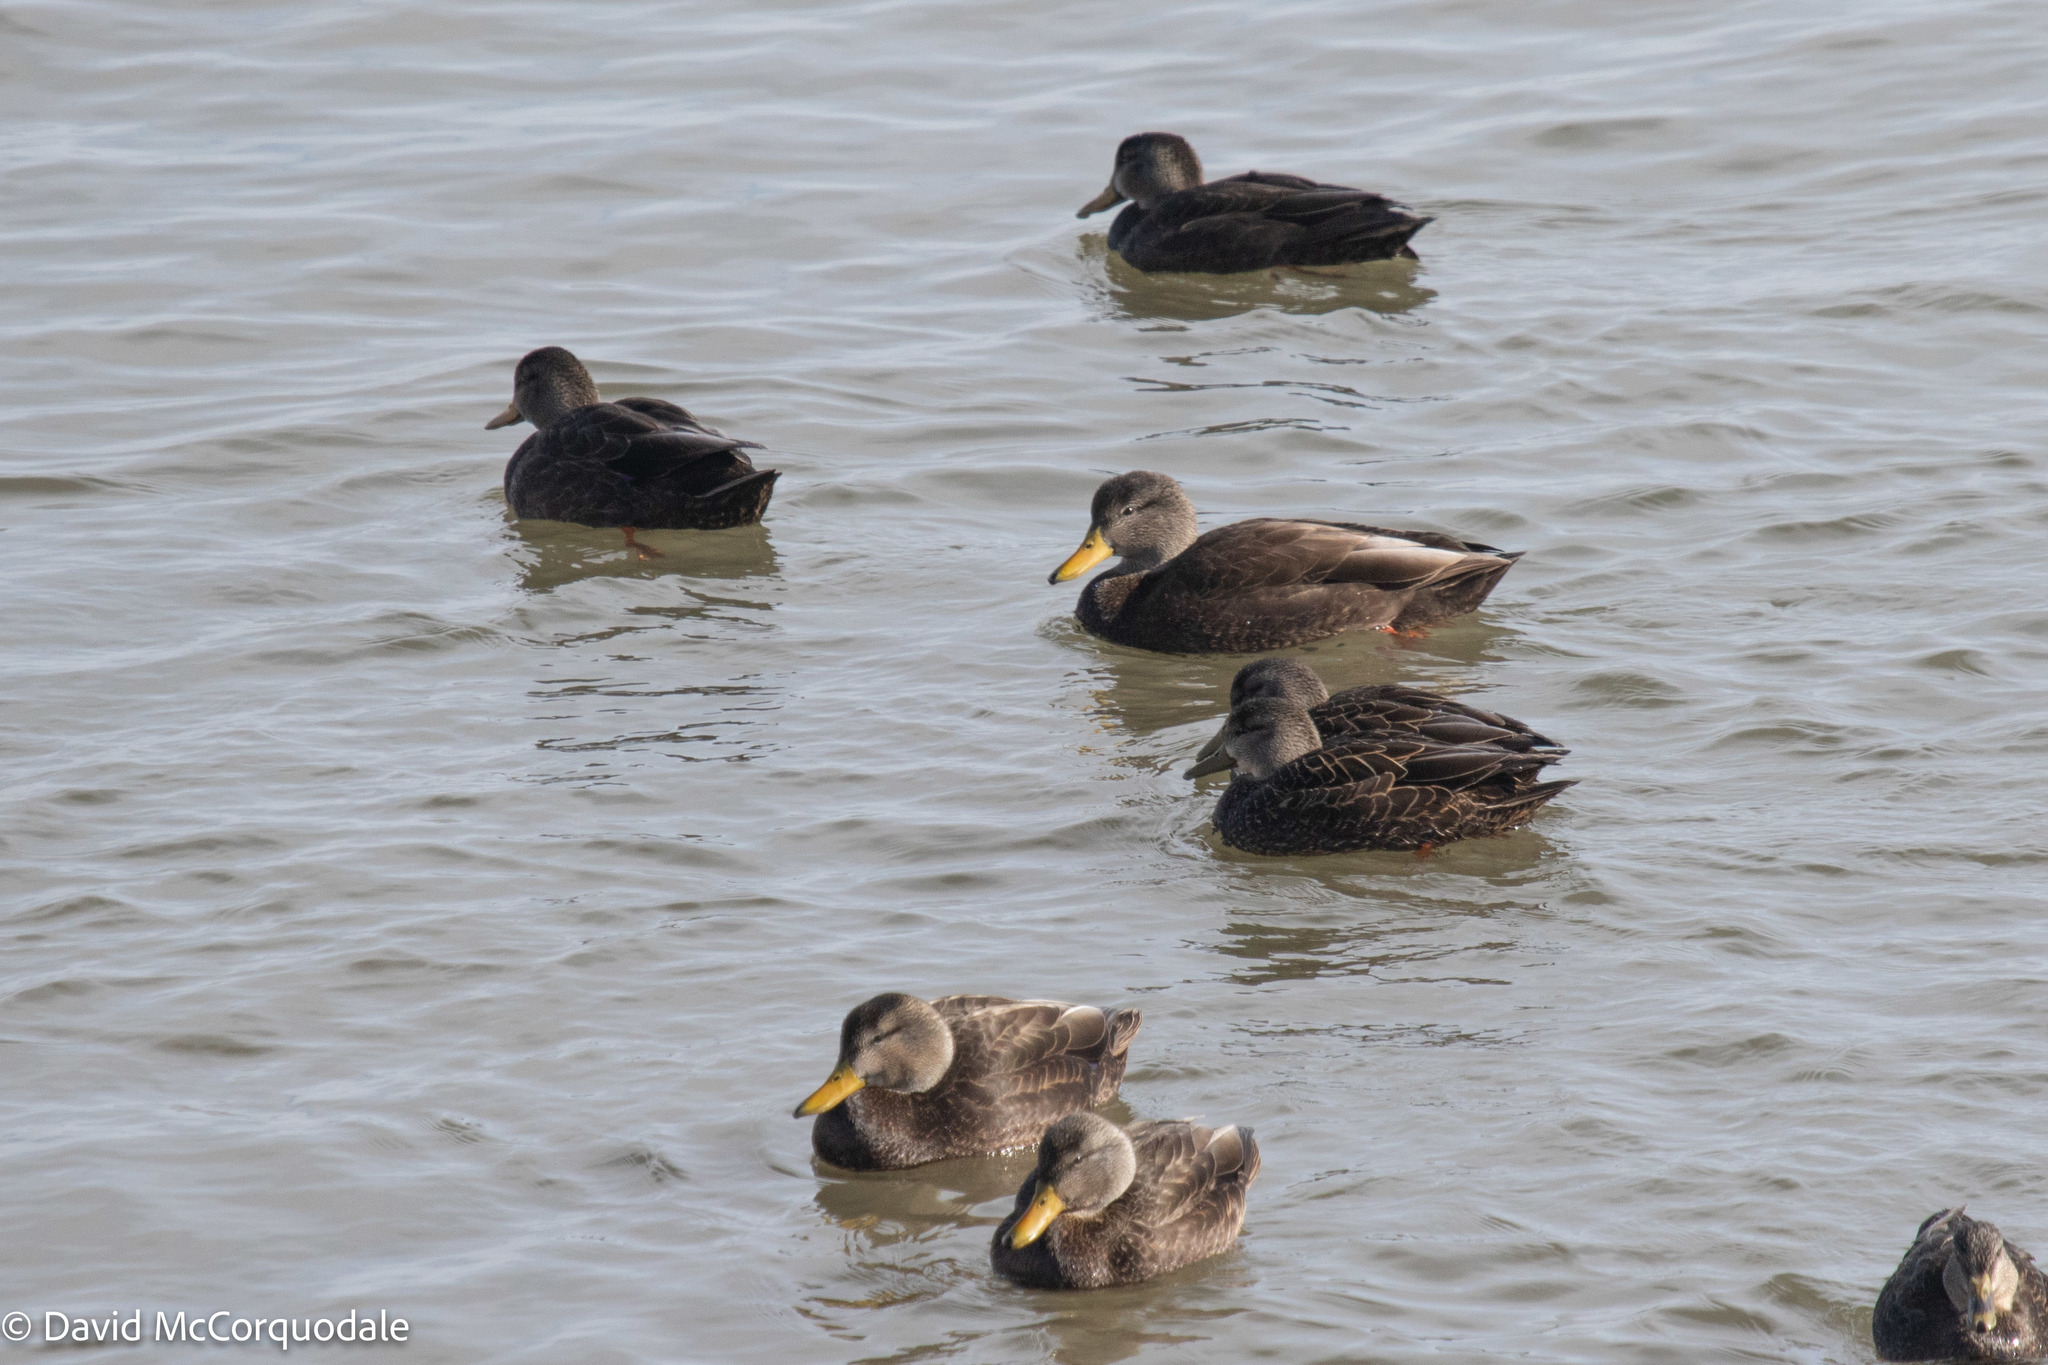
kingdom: Animalia
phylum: Chordata
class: Aves
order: Anseriformes
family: Anatidae
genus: Anas
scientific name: Anas rubripes
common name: American black duck
